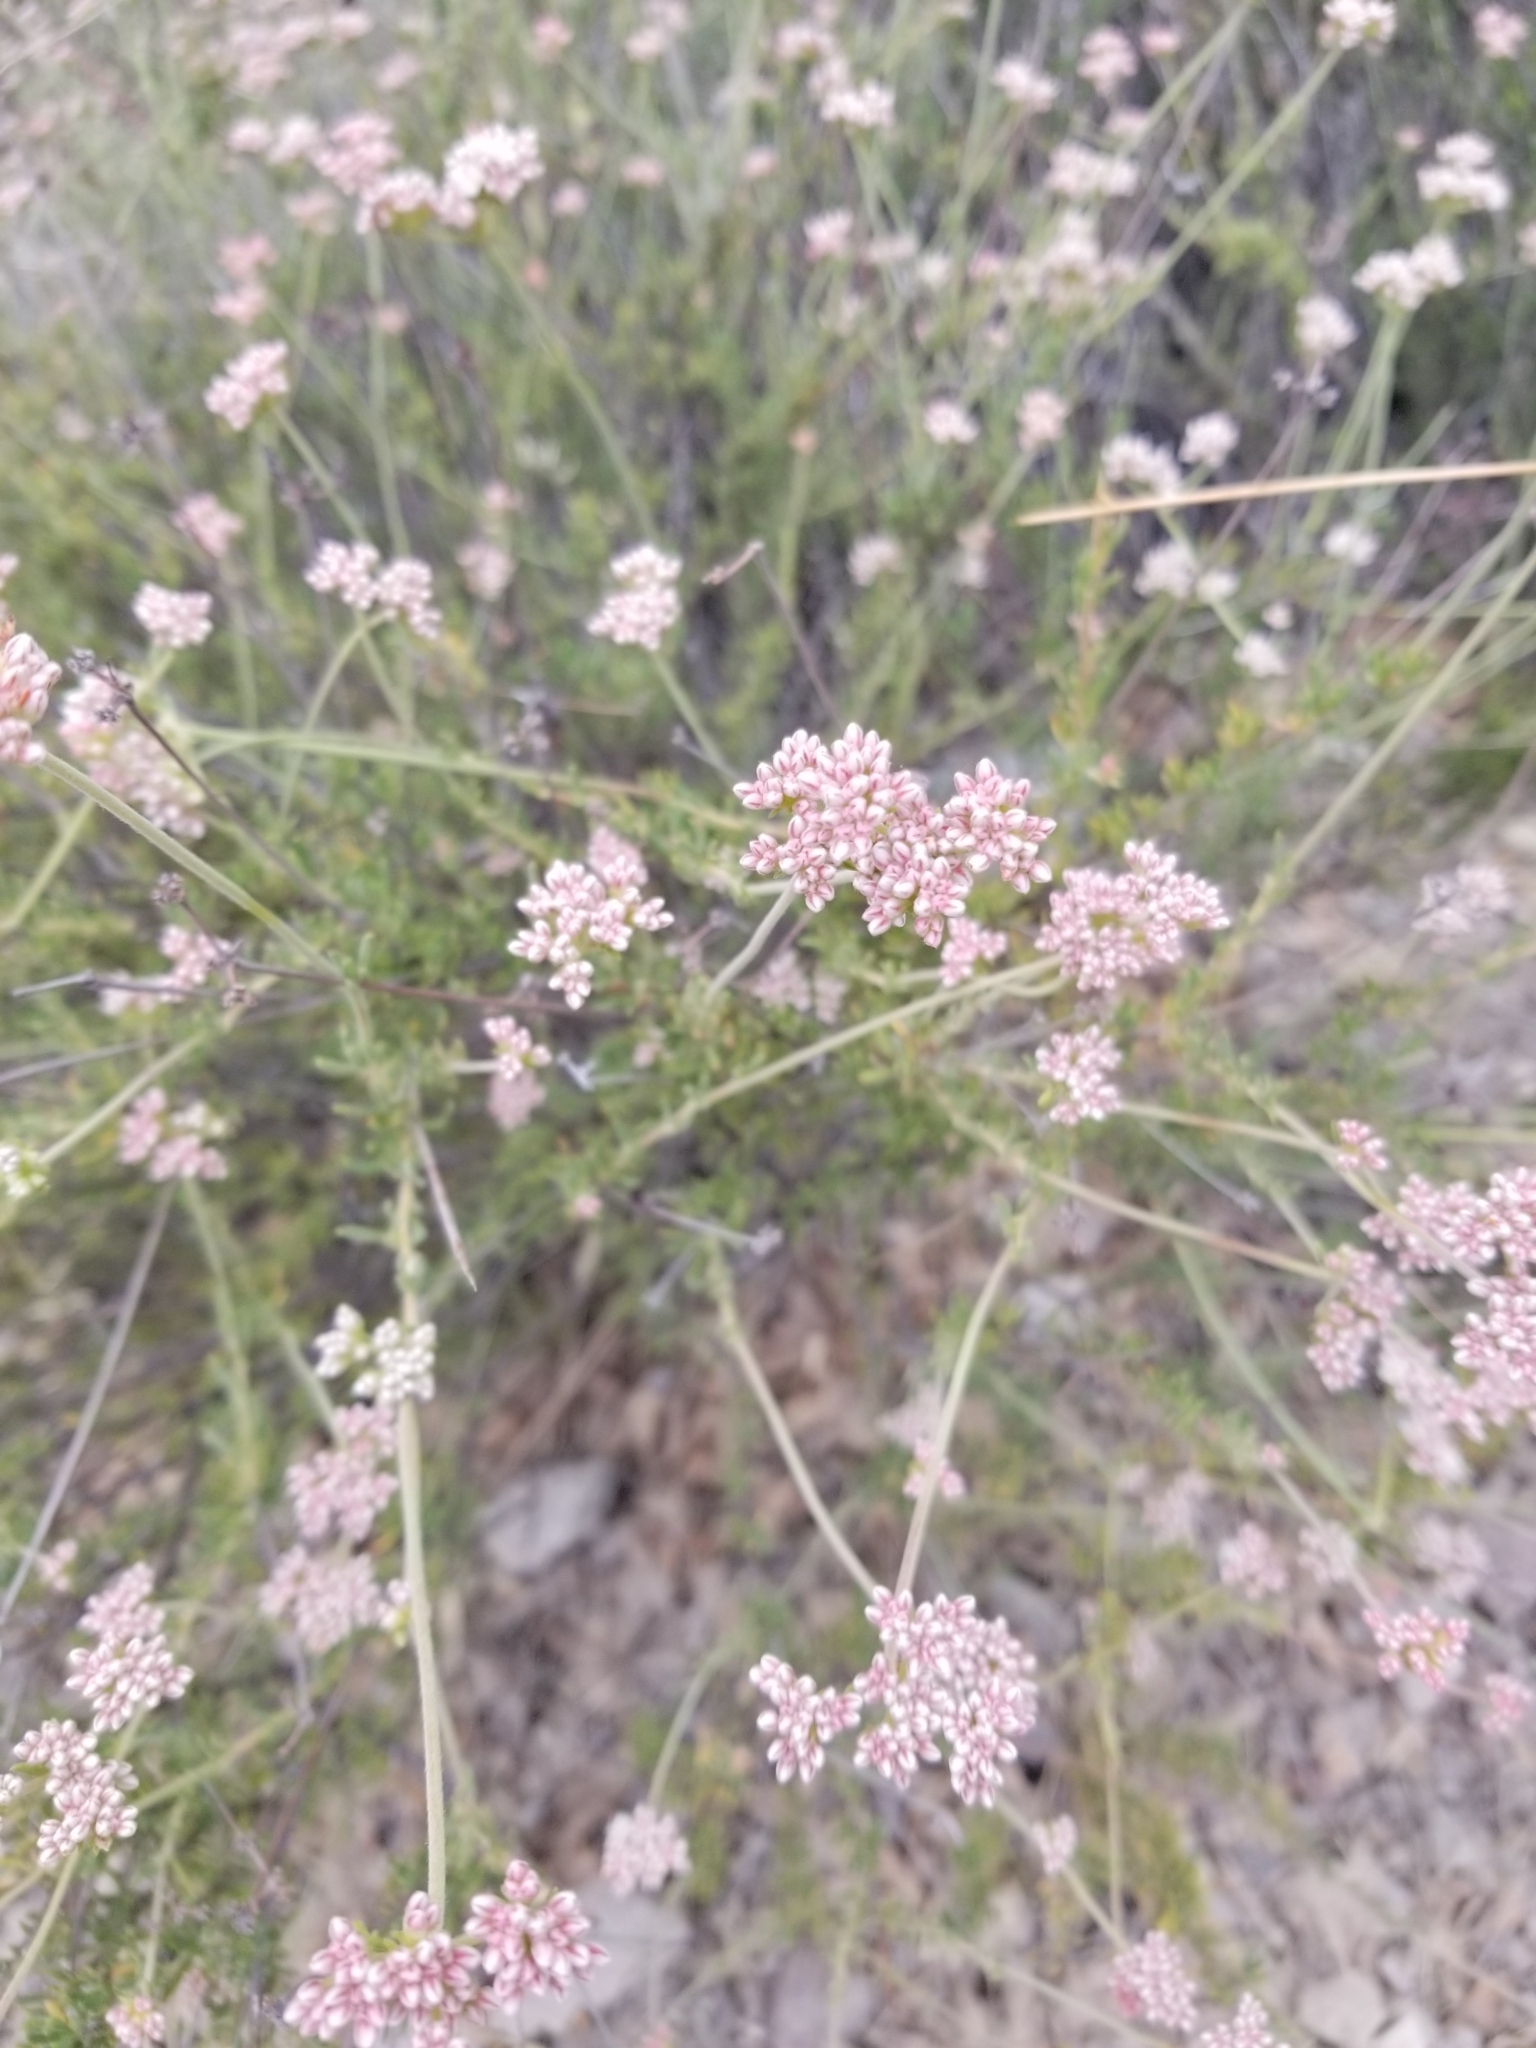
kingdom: Plantae
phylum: Tracheophyta
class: Magnoliopsida
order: Caryophyllales
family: Polygonaceae
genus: Eriogonum
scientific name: Eriogonum fasciculatum
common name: California wild buckwheat
